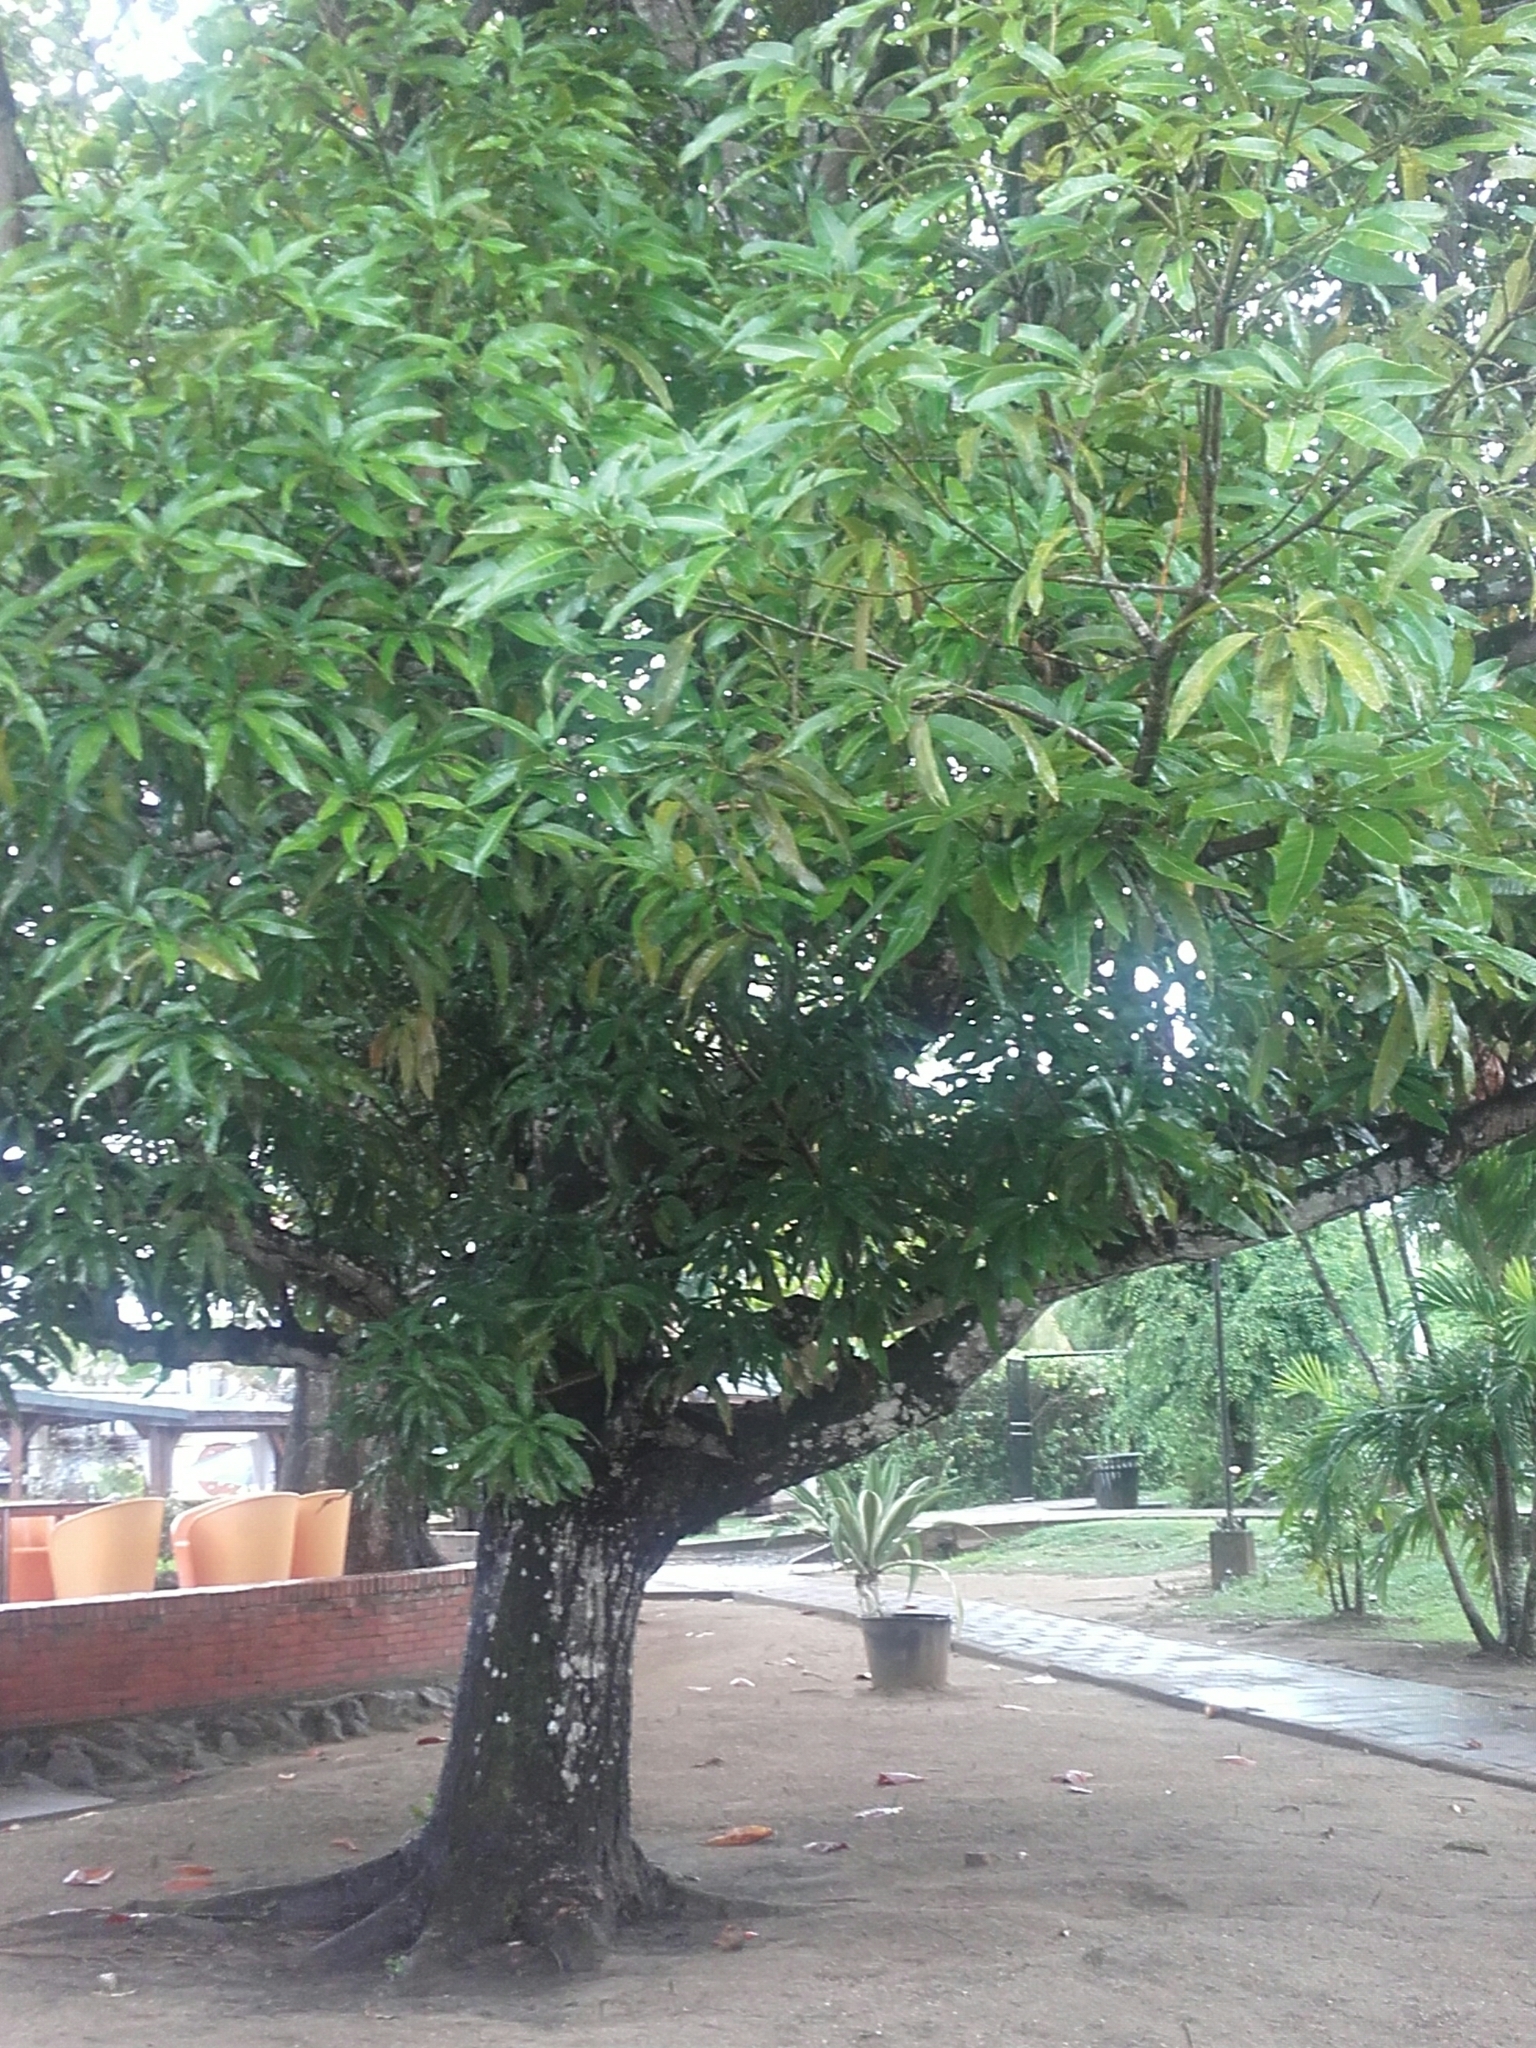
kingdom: Plantae
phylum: Tracheophyta
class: Magnoliopsida
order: Sapindales
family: Anacardiaceae
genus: Mangifera
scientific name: Mangifera indica
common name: Mango
